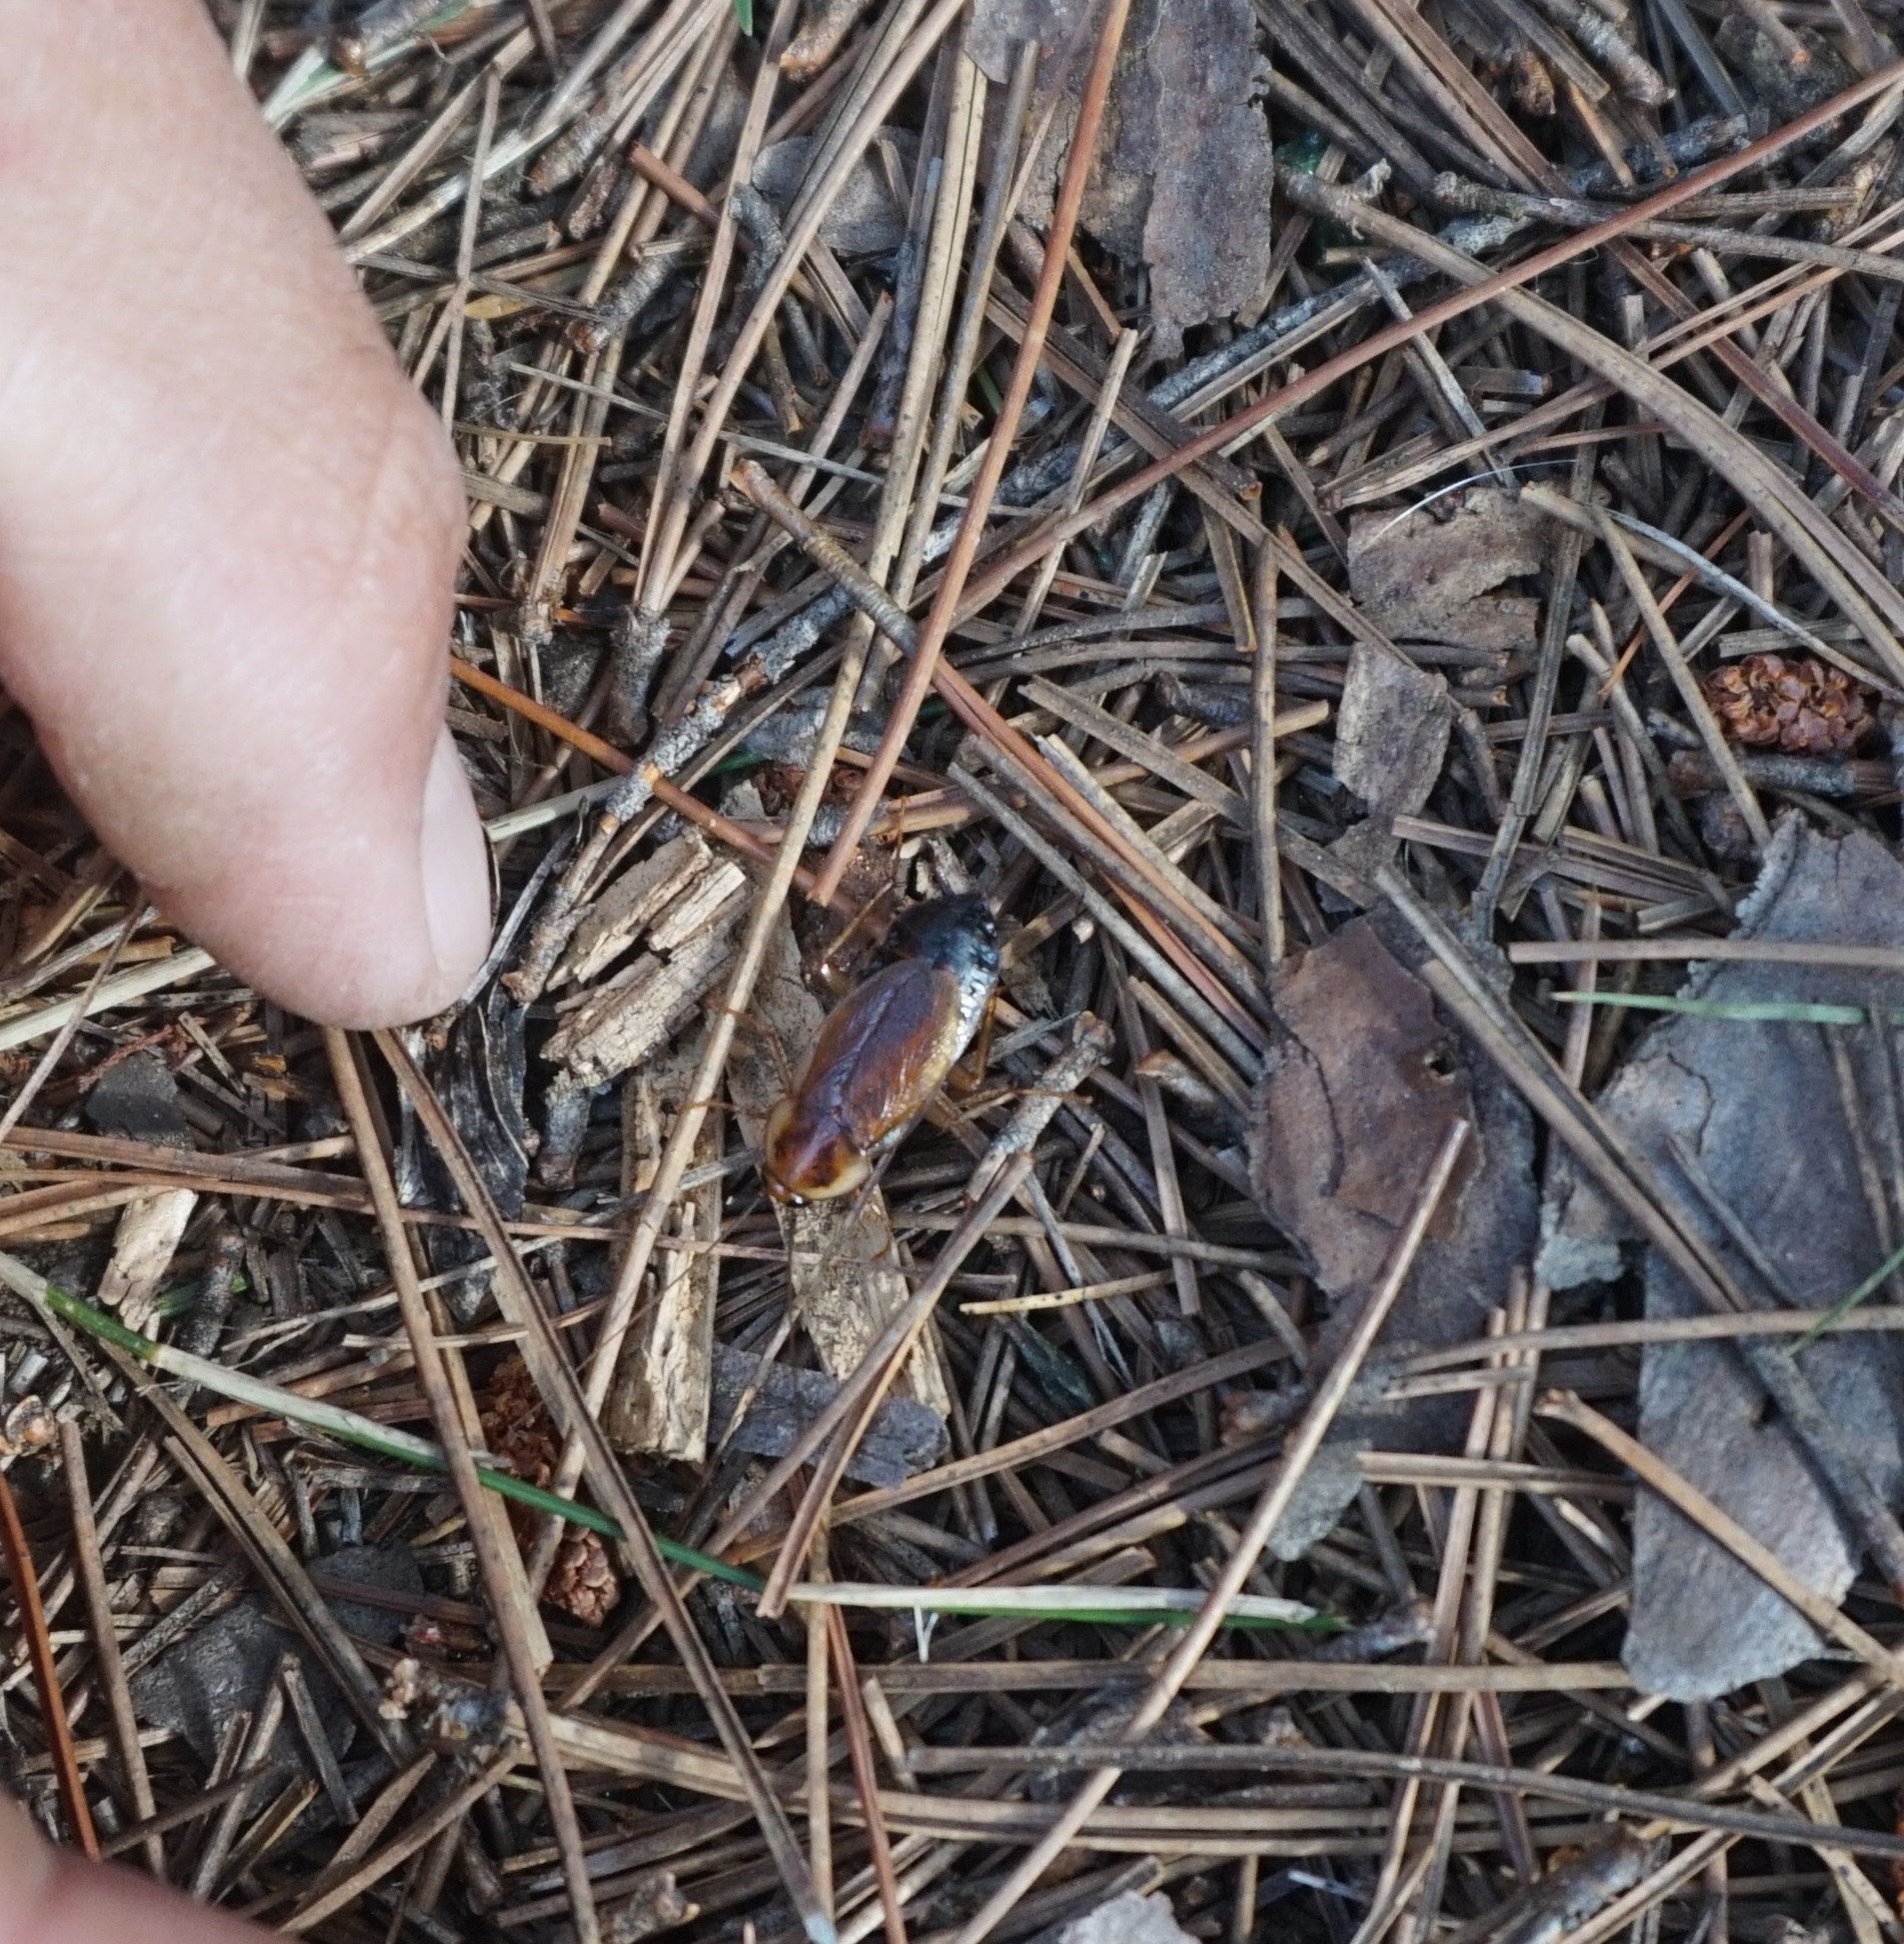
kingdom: Animalia
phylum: Arthropoda
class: Insecta
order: Blattodea
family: Ectobiidae
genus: Parcoblatta
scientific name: Parcoblatta pennsylvanica
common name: Pennsylvanian wood cockroach
